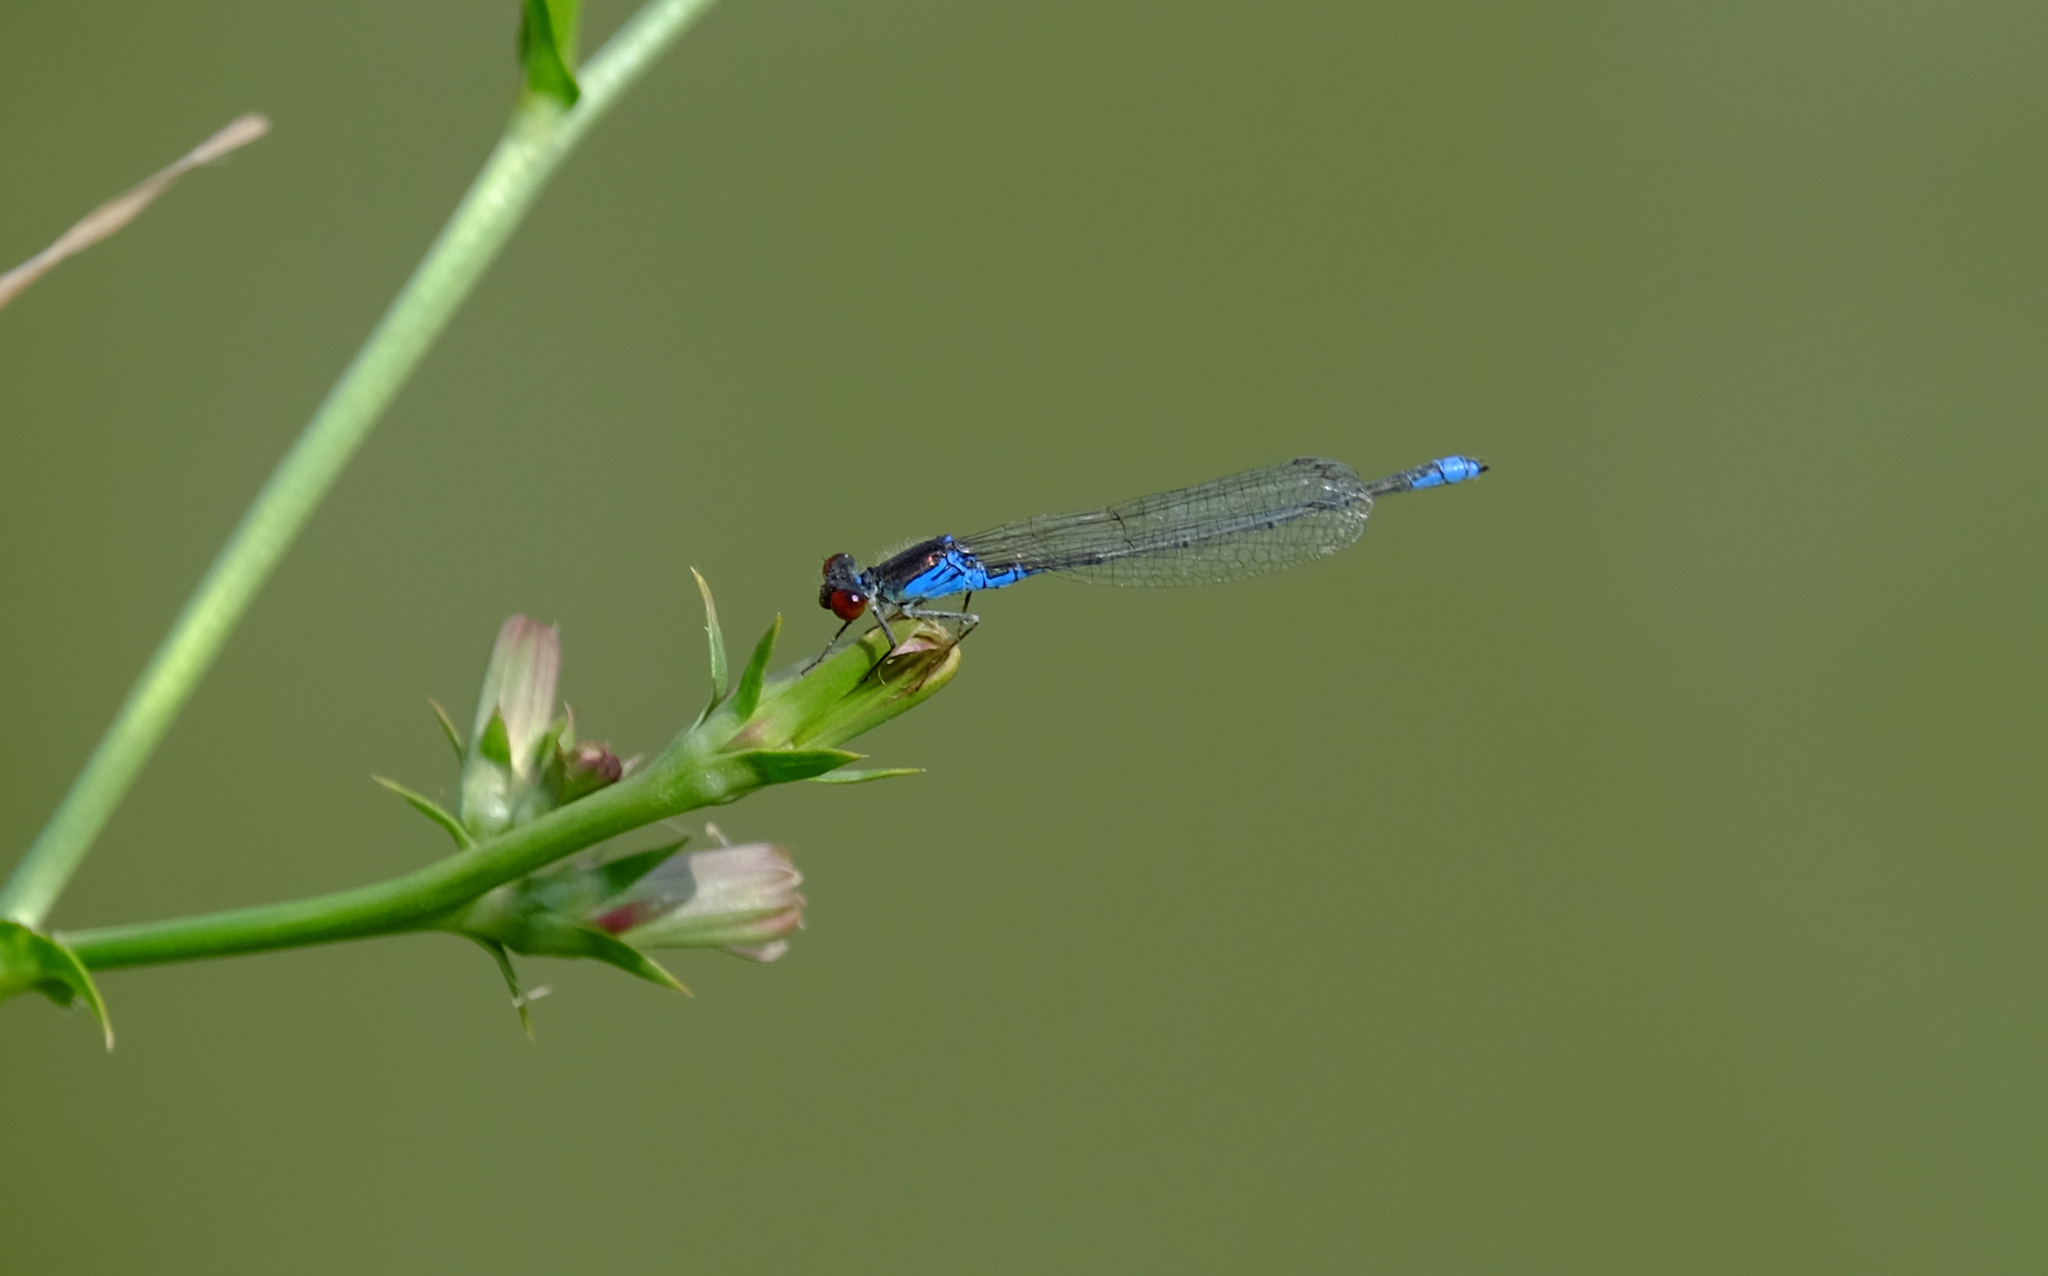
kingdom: Animalia
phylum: Arthropoda
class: Insecta
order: Odonata
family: Coenagrionidae
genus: Erythromma
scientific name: Erythromma viridulum
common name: Small red-eyed damselfly
